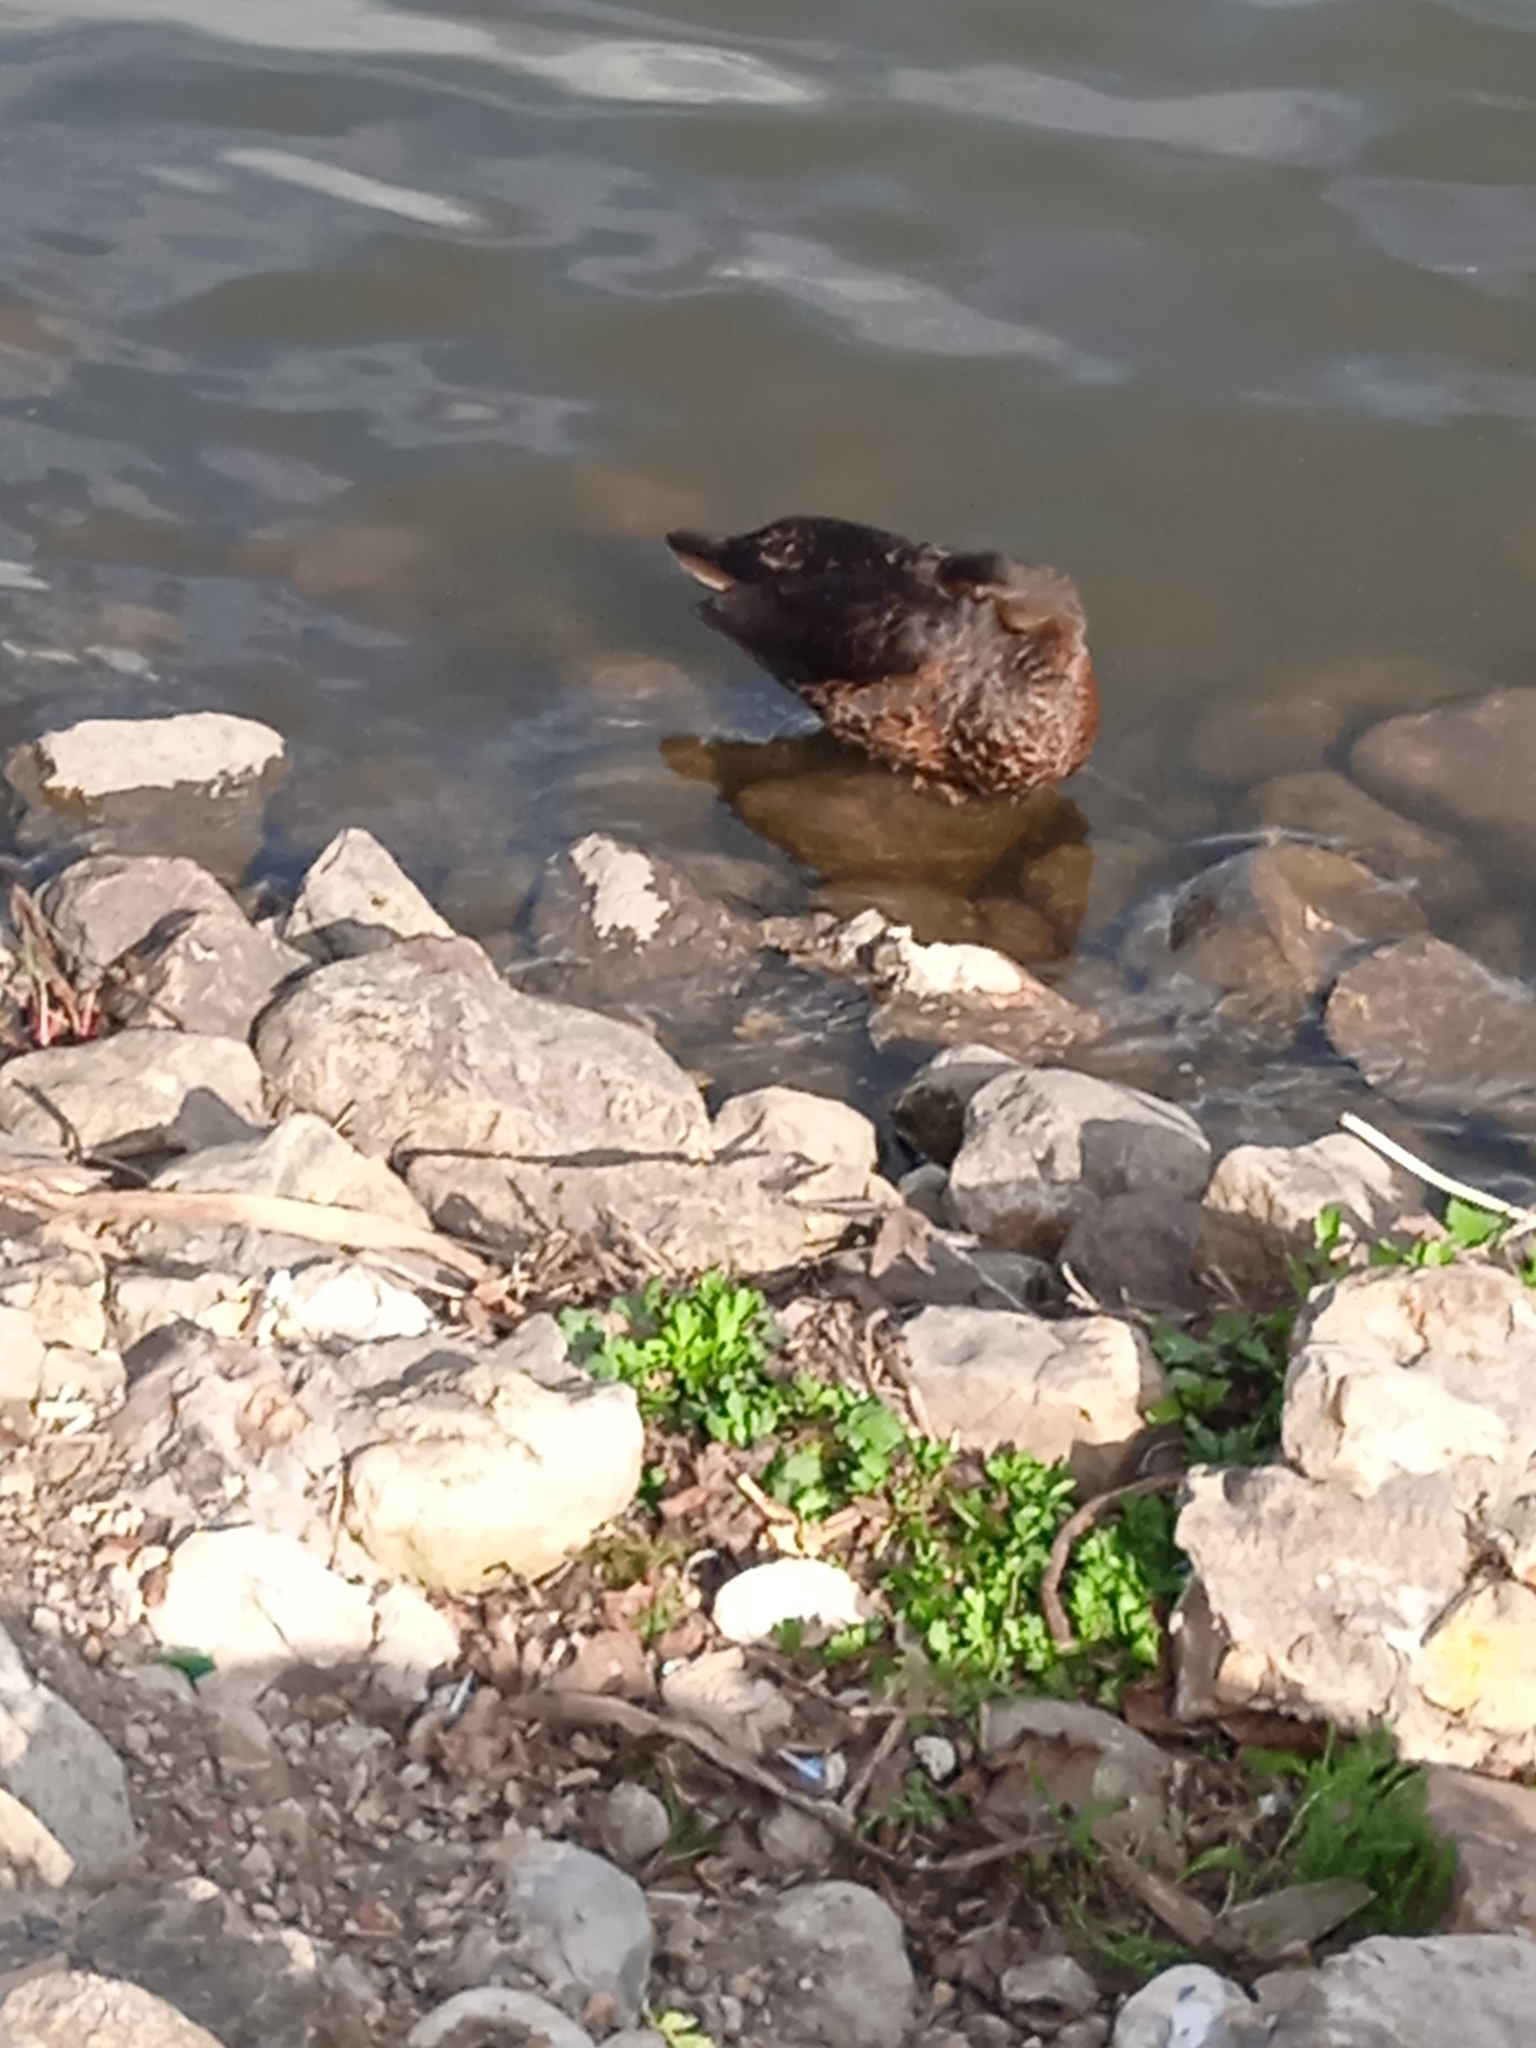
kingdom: Animalia
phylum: Chordata
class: Aves
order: Anseriformes
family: Anatidae
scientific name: Anatidae
